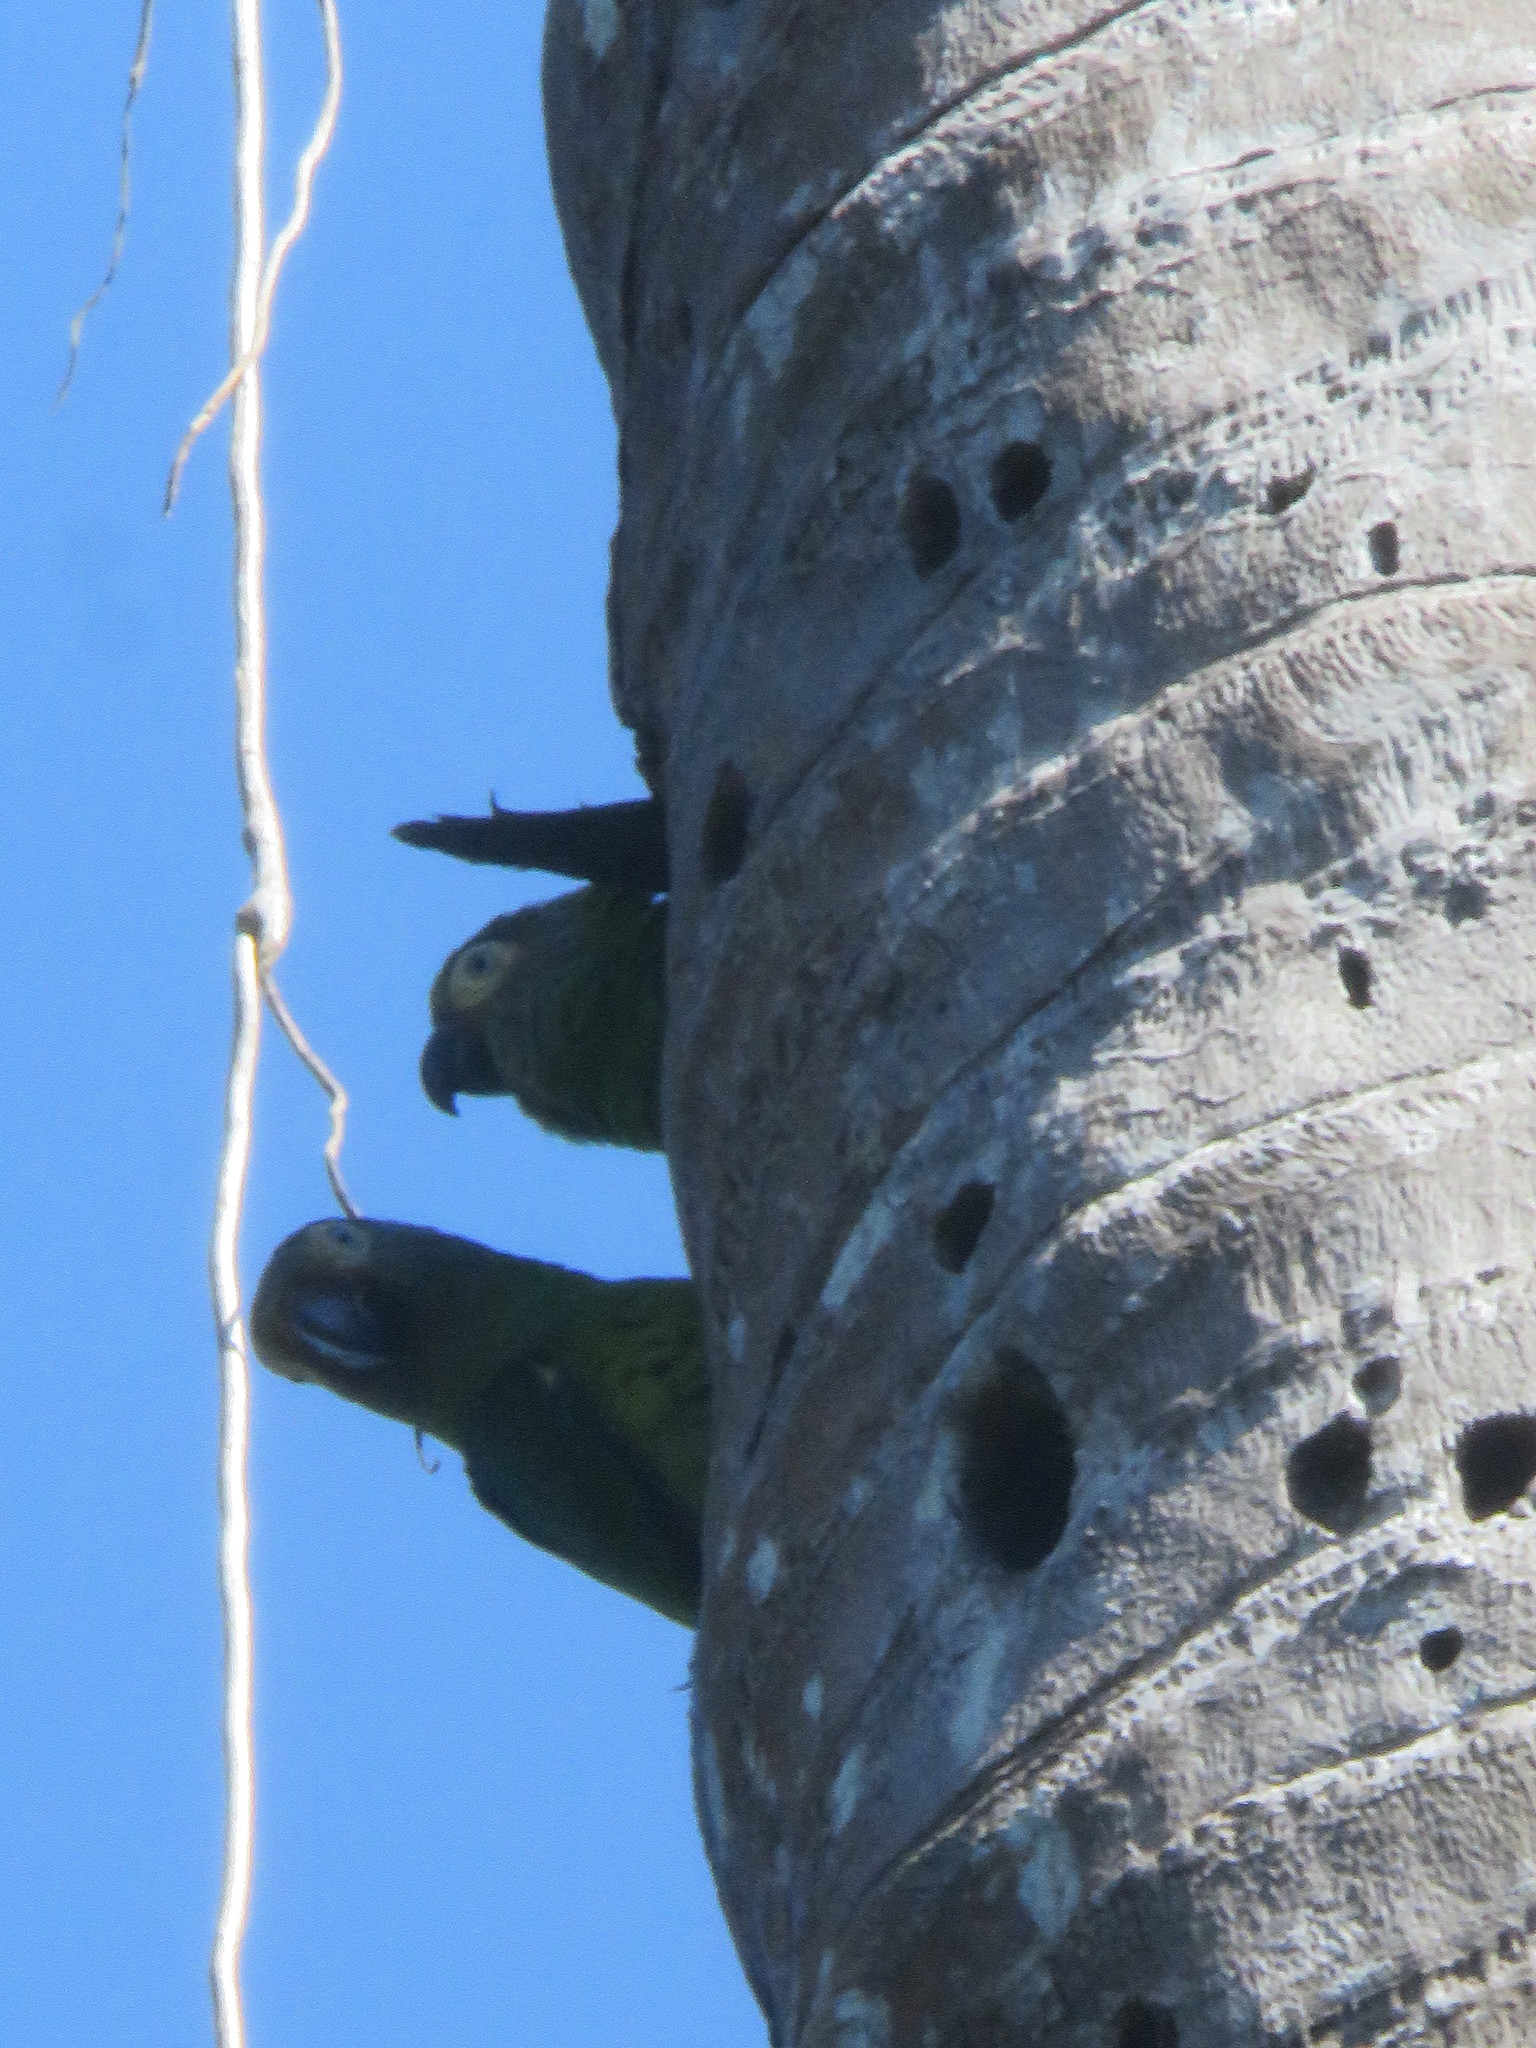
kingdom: Animalia
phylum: Chordata
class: Aves
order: Psittaciformes
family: Psittacidae
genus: Aratinga
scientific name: Aratinga weddellii
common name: Dusky-headed parakeet
